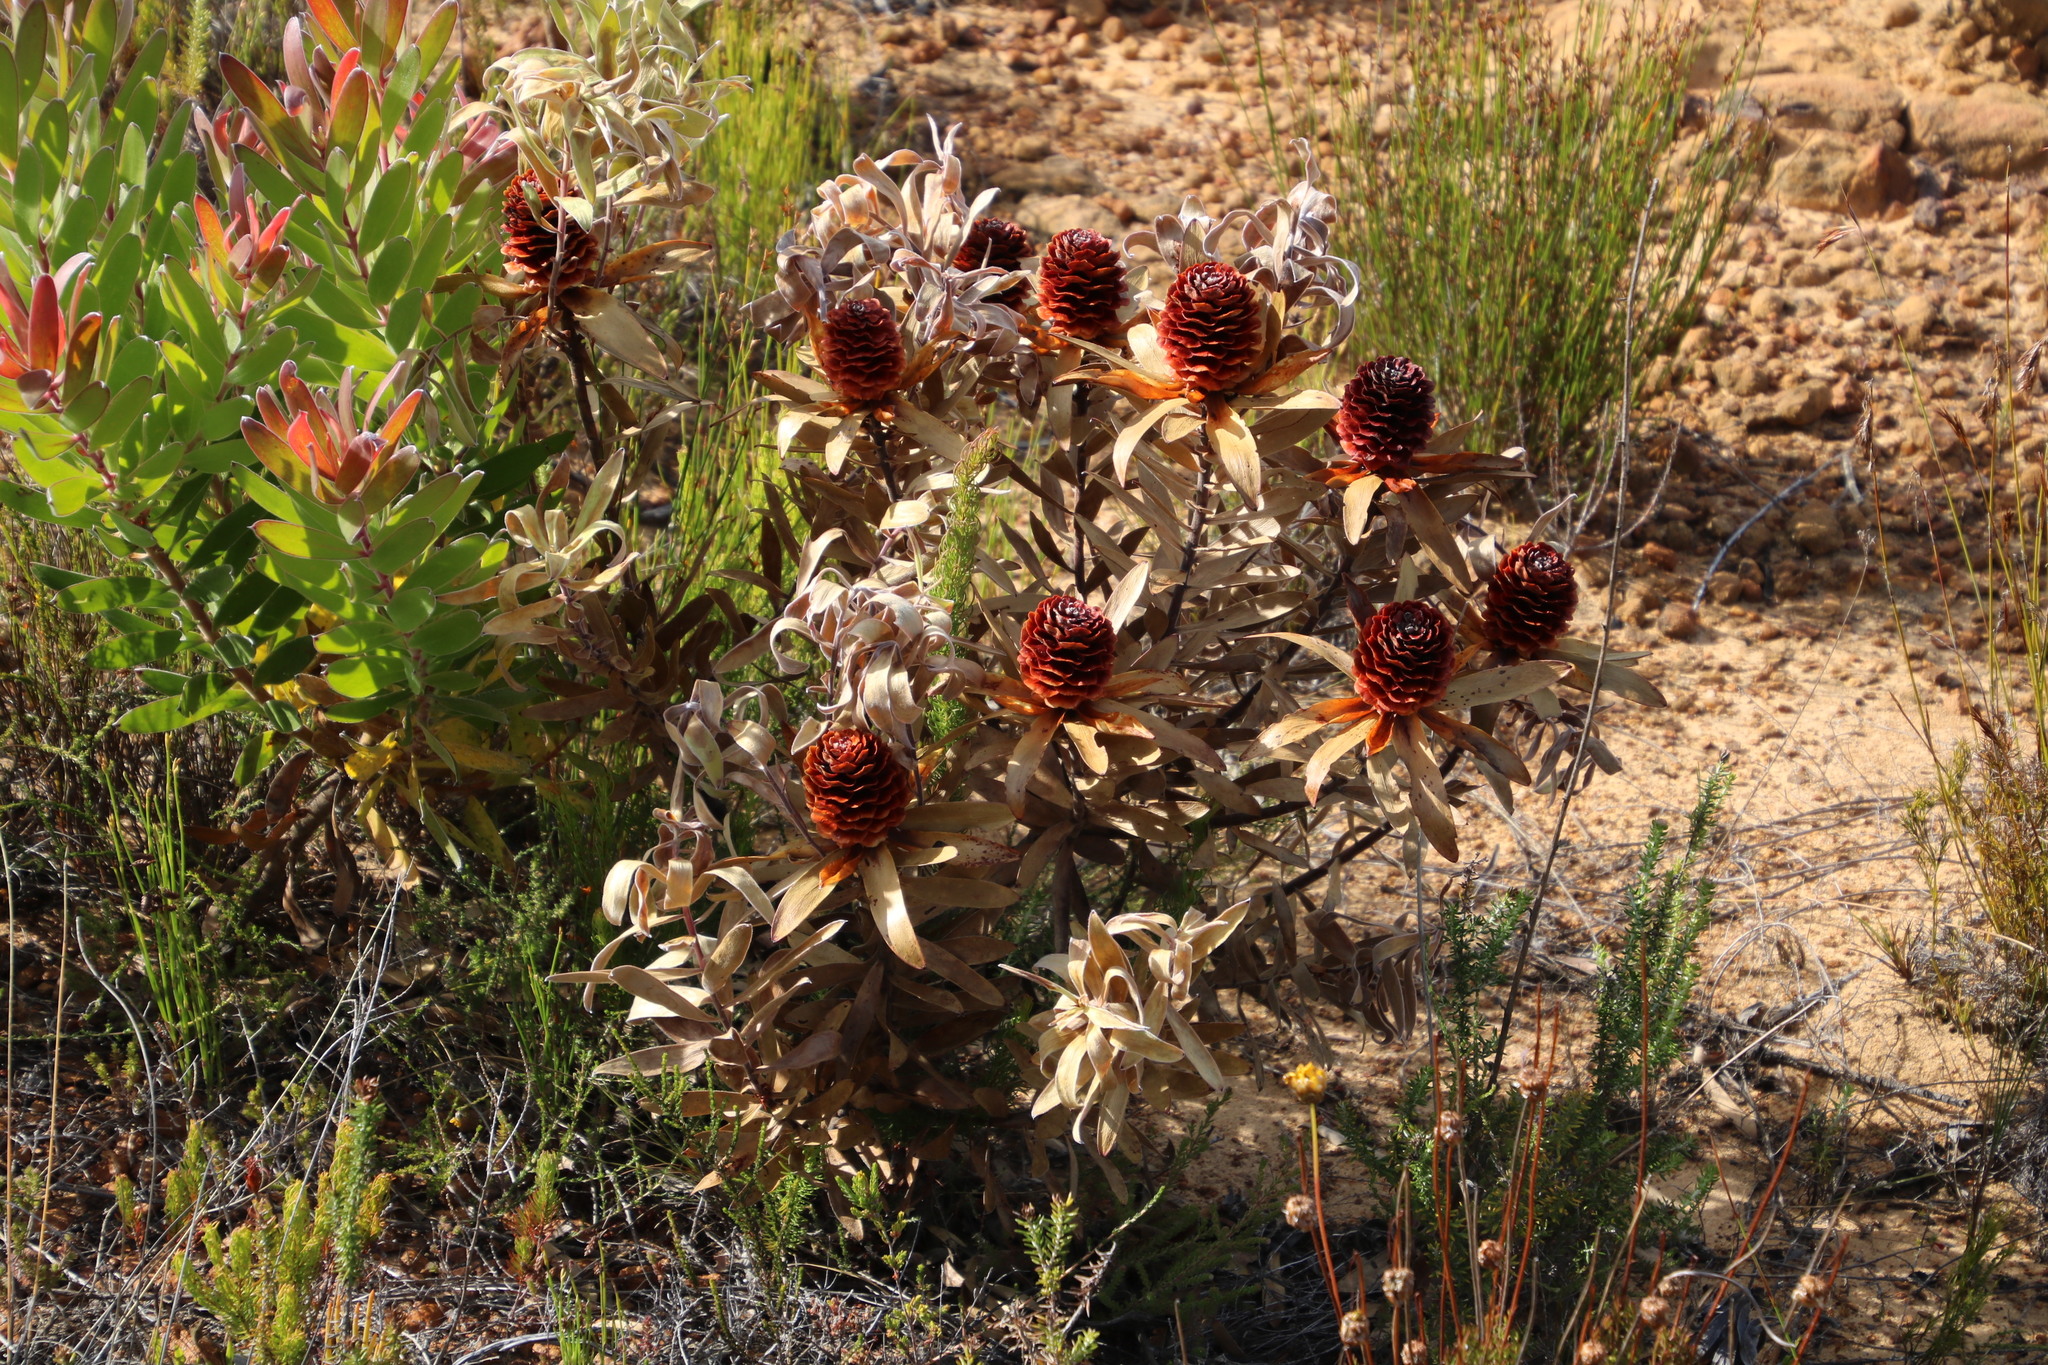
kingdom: Plantae
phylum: Tracheophyta
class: Magnoliopsida
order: Proteales
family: Proteaceae
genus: Leucadendron
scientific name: Leucadendron laureolum
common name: Golden sunshinebush
